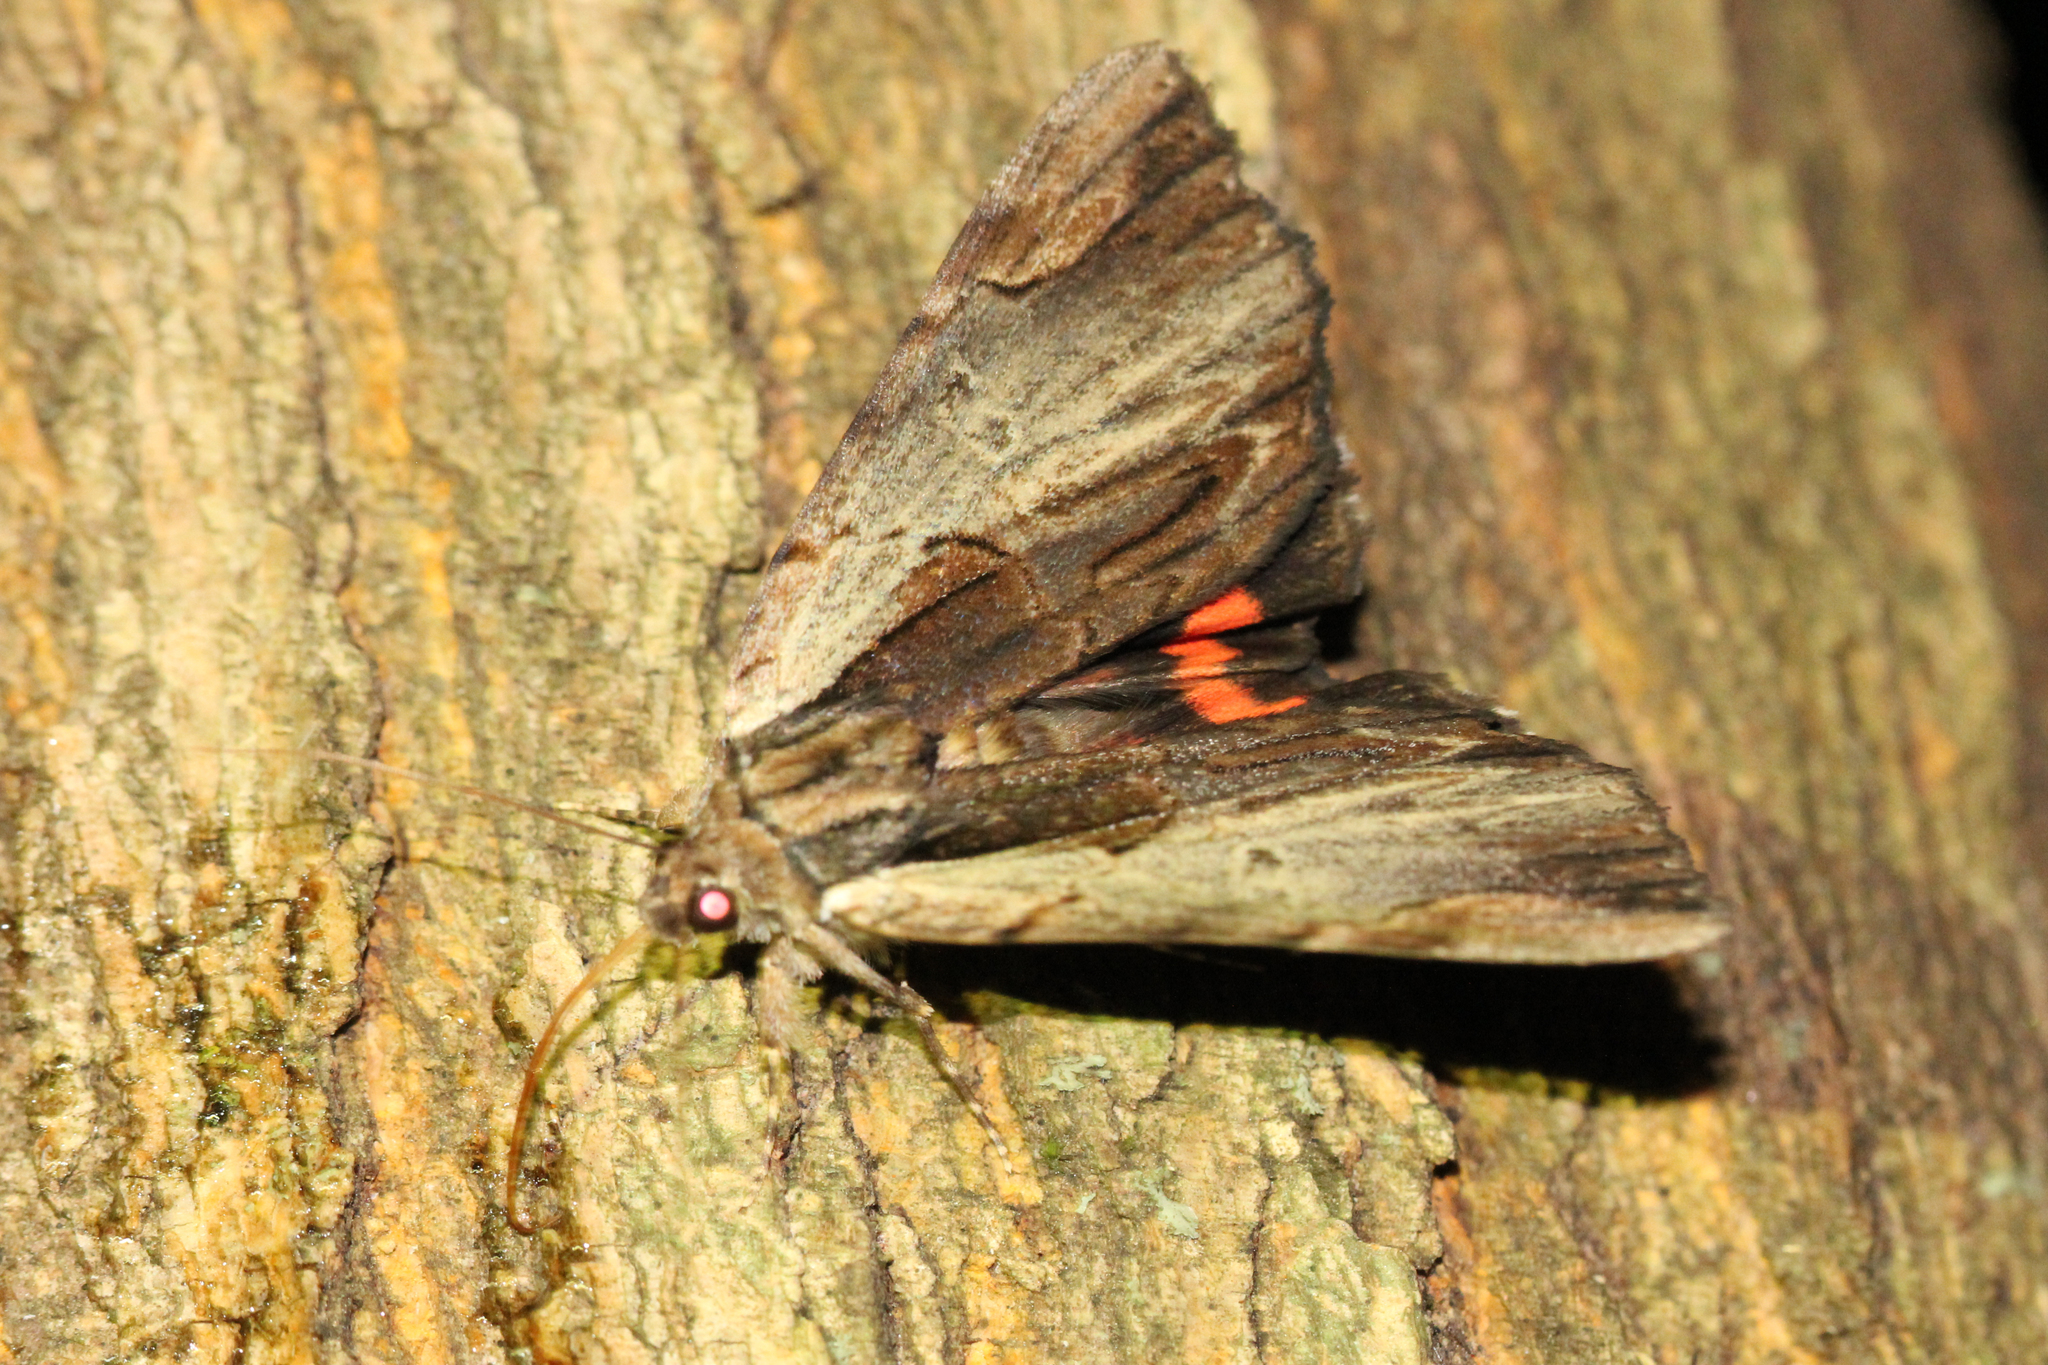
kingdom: Animalia
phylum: Arthropoda
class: Insecta
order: Lepidoptera
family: Erebidae
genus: Catocala
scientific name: Catocala ultronia
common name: Ultronia underwing
